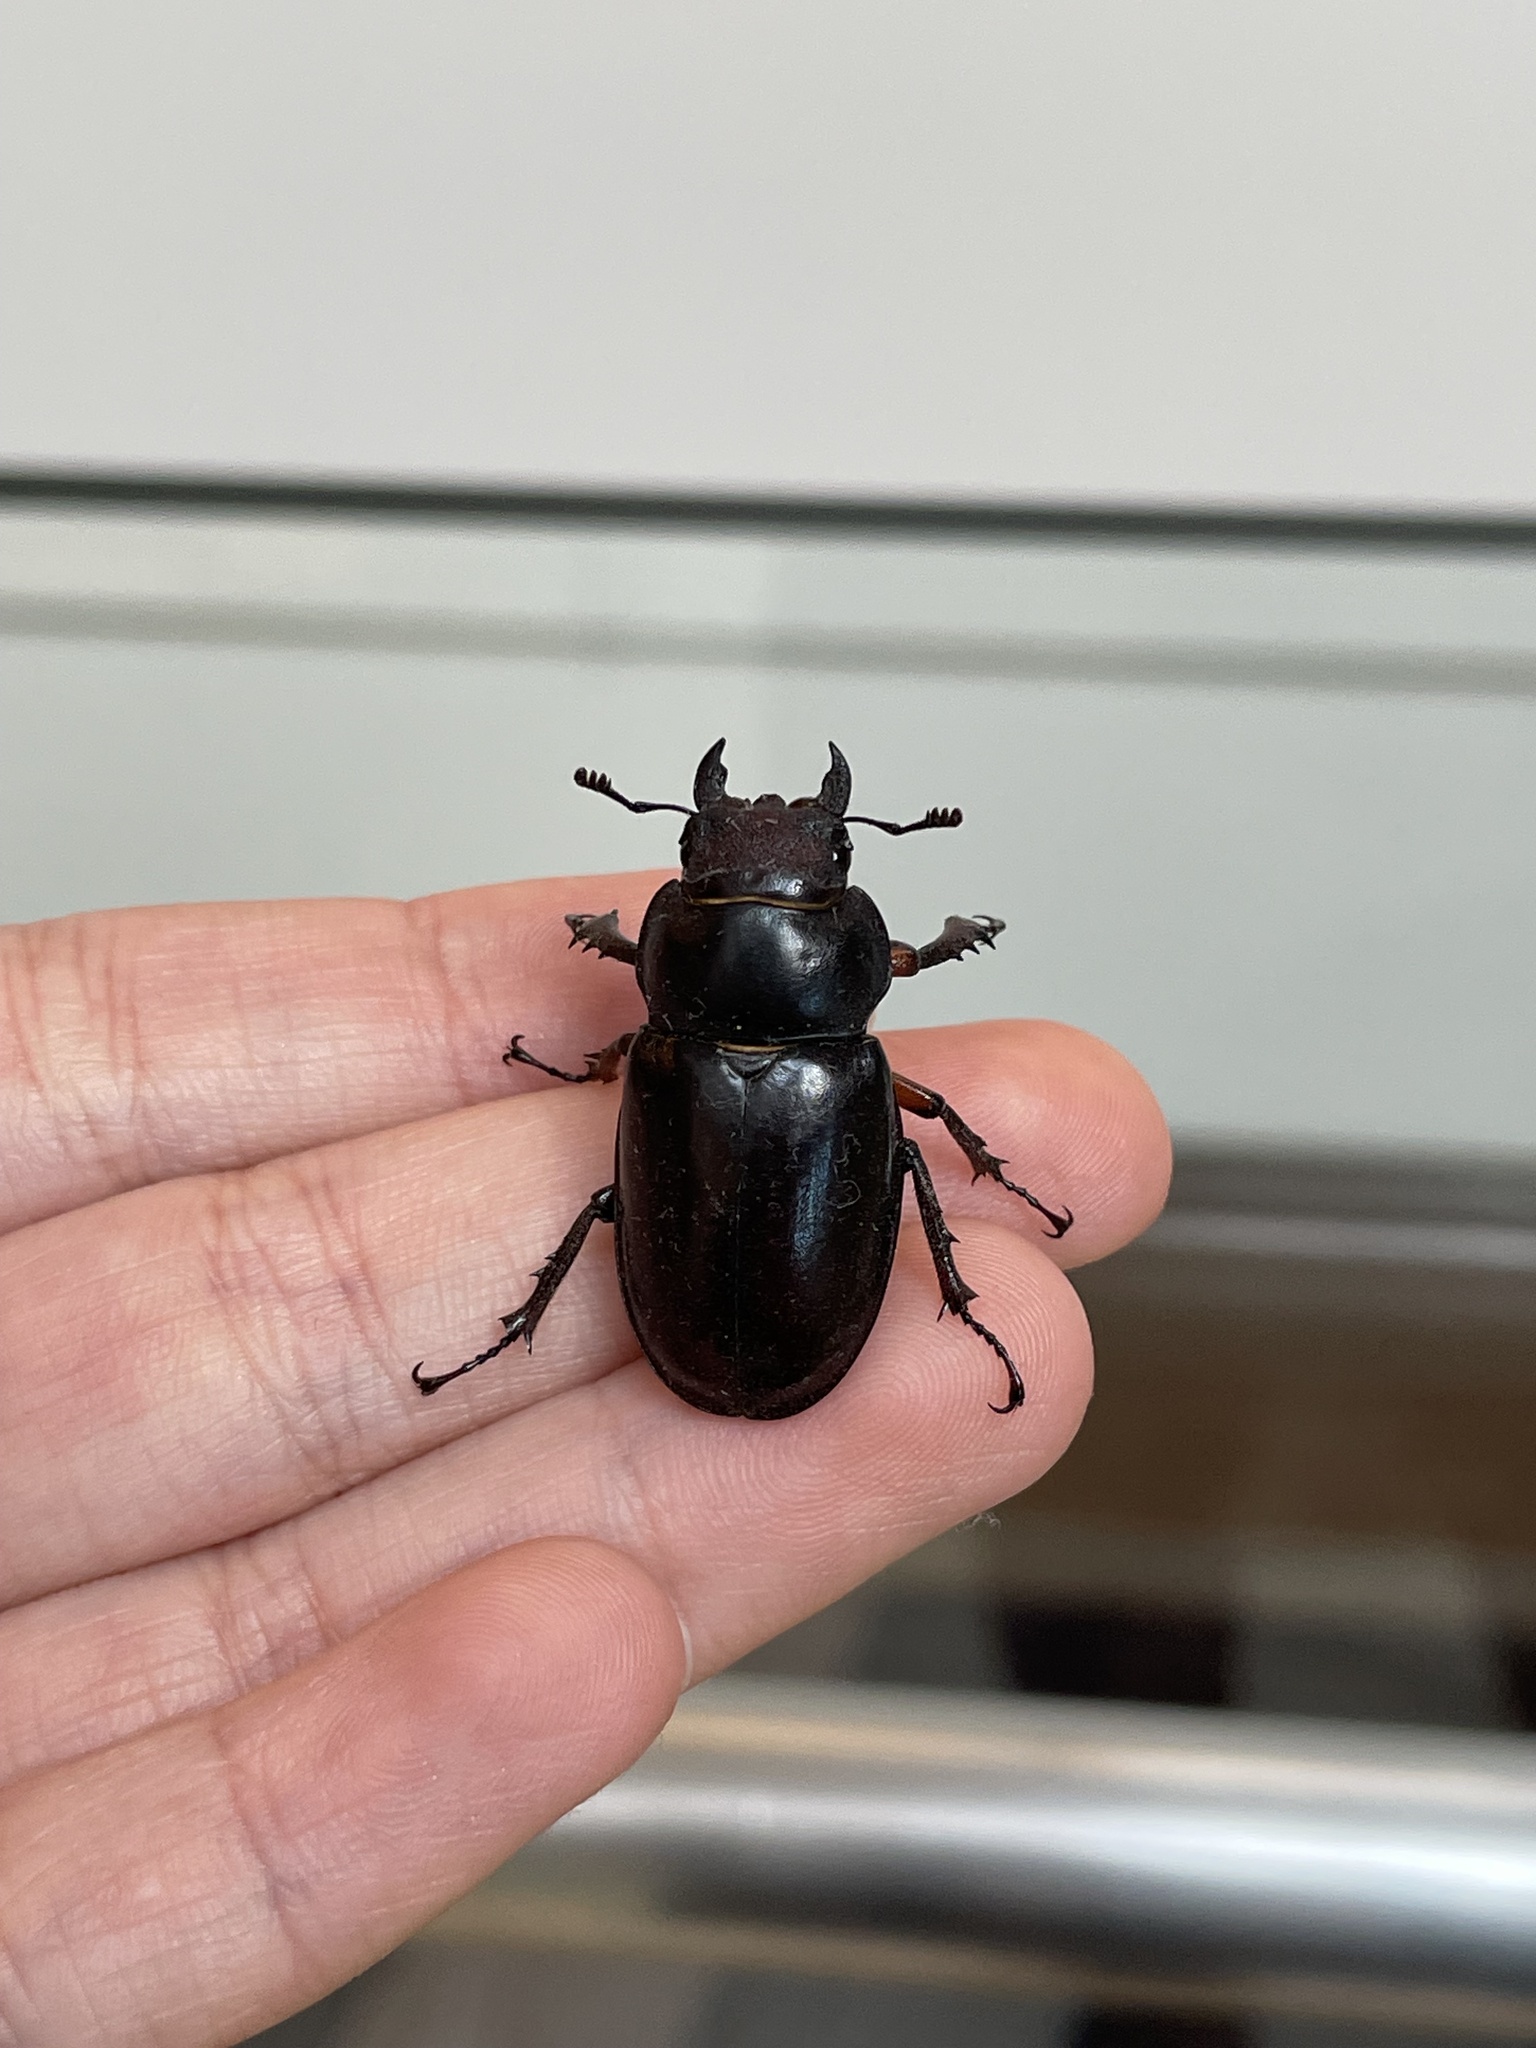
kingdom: Animalia
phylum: Arthropoda
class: Insecta
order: Coleoptera
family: Lucanidae
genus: Lucanus
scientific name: Lucanus capreolus
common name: Stag beetle
